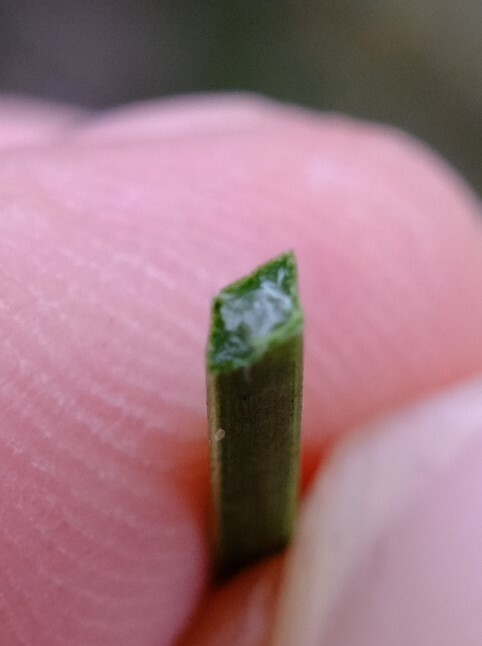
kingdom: Plantae
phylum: Tracheophyta
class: Liliopsida
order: Asparagales
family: Asphodelaceae
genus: Xanthorrhoea
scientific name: Xanthorrhoea brunonis
